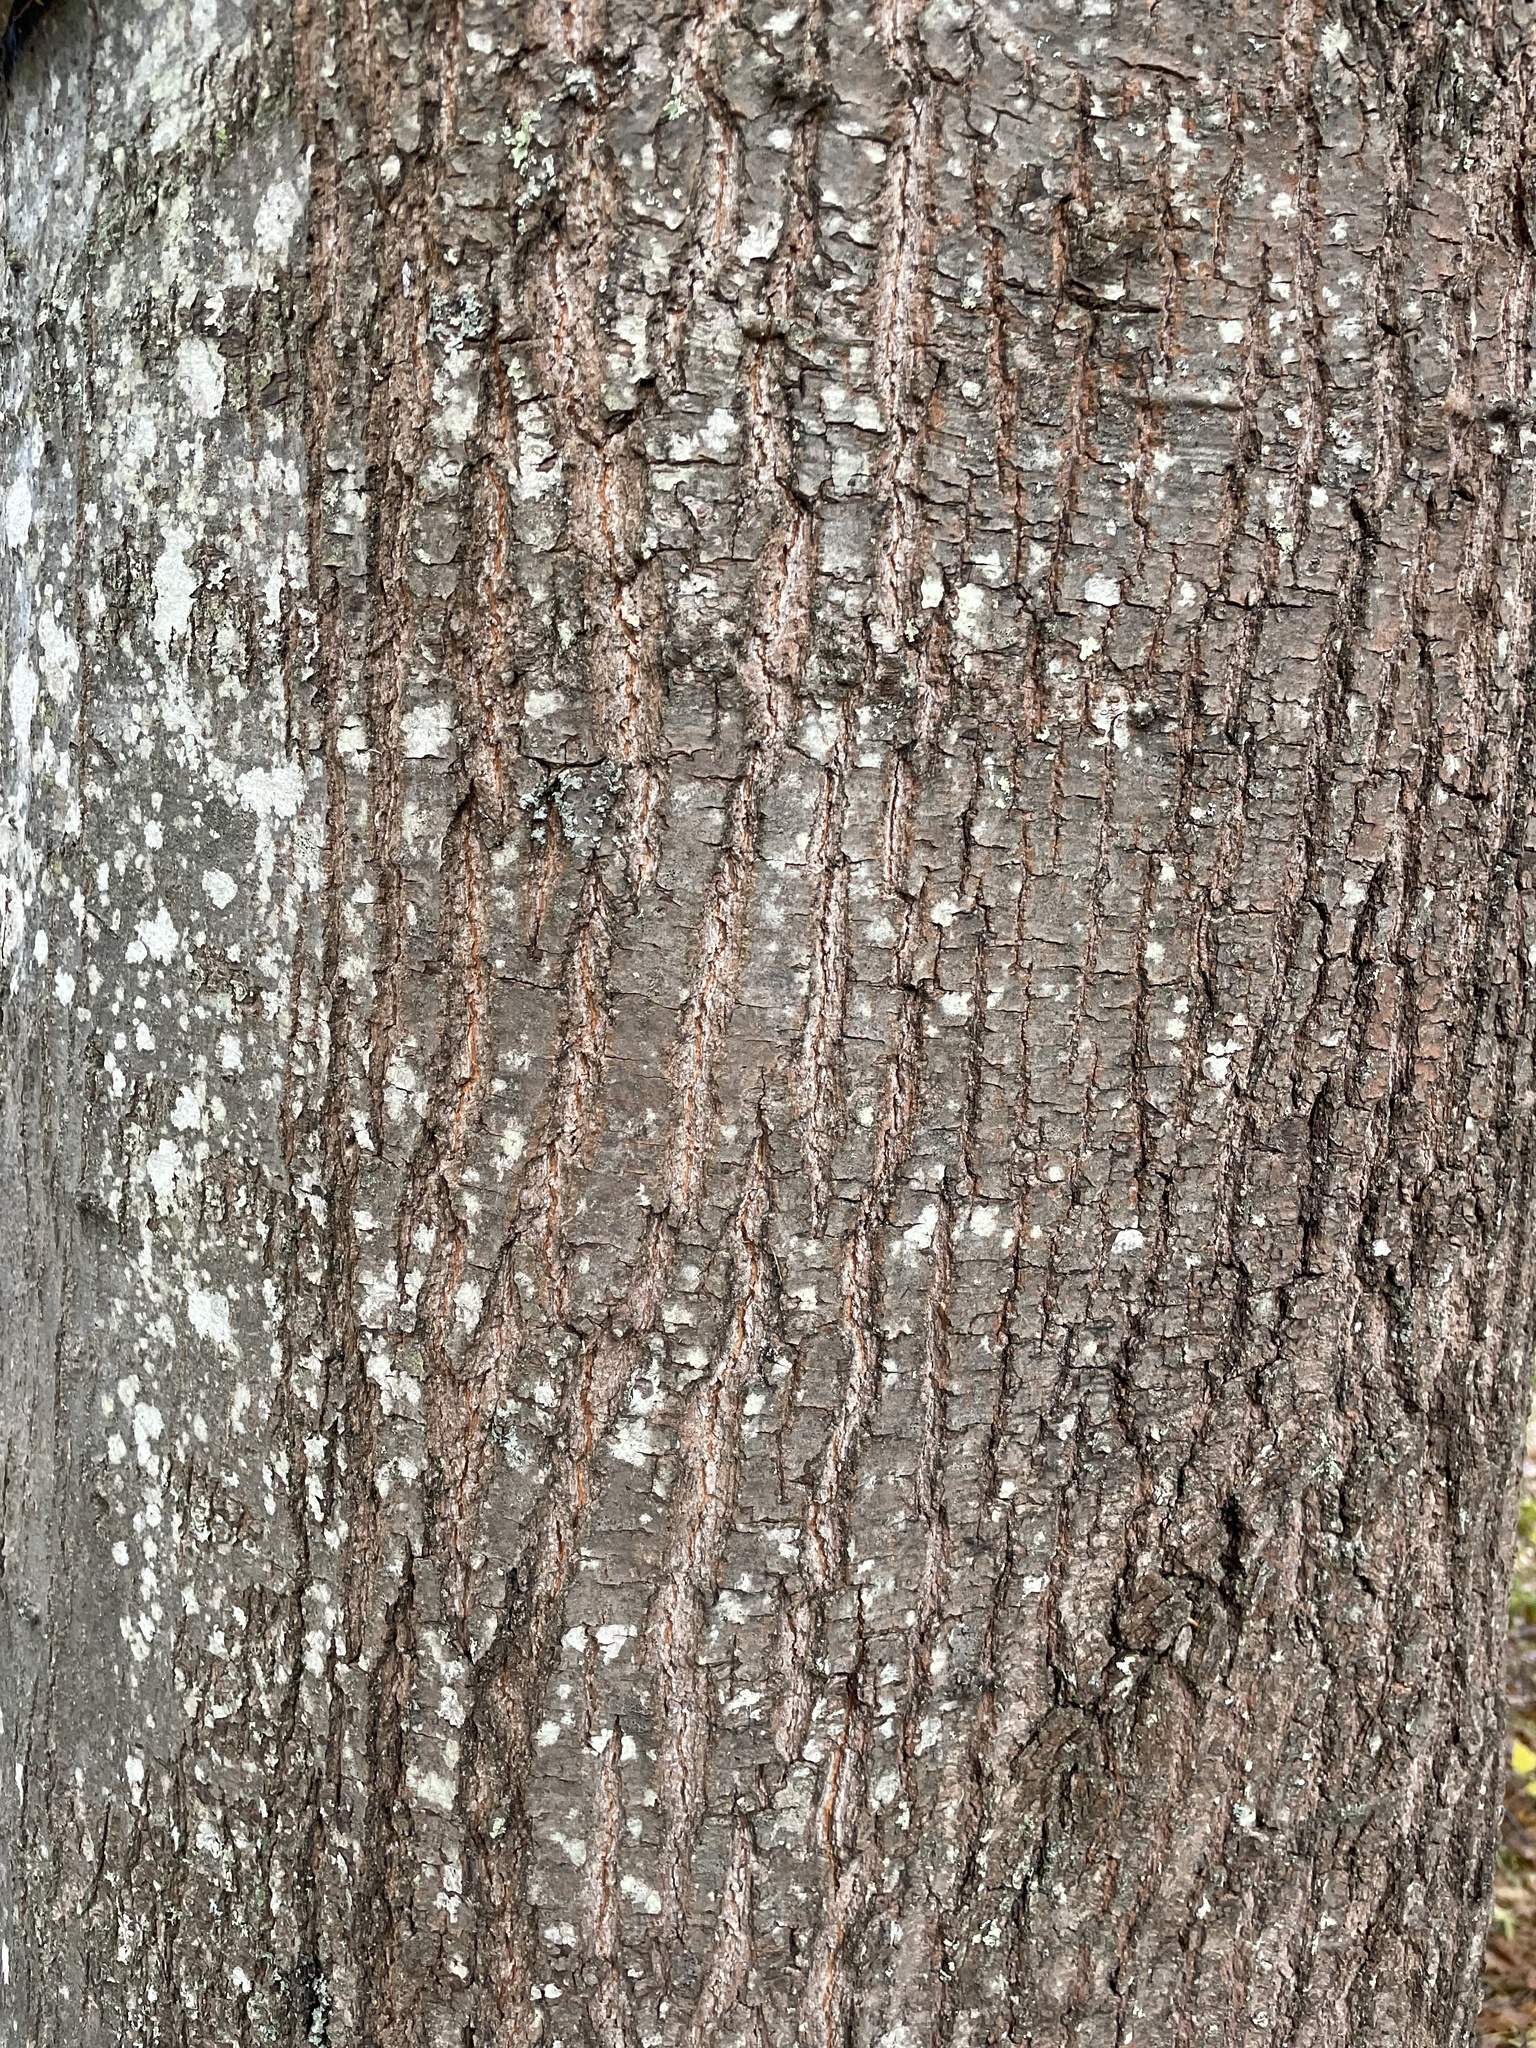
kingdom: Plantae
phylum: Tracheophyta
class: Magnoliopsida
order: Fagales
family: Fagaceae
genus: Quercus
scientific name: Quercus rubra
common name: Red oak
